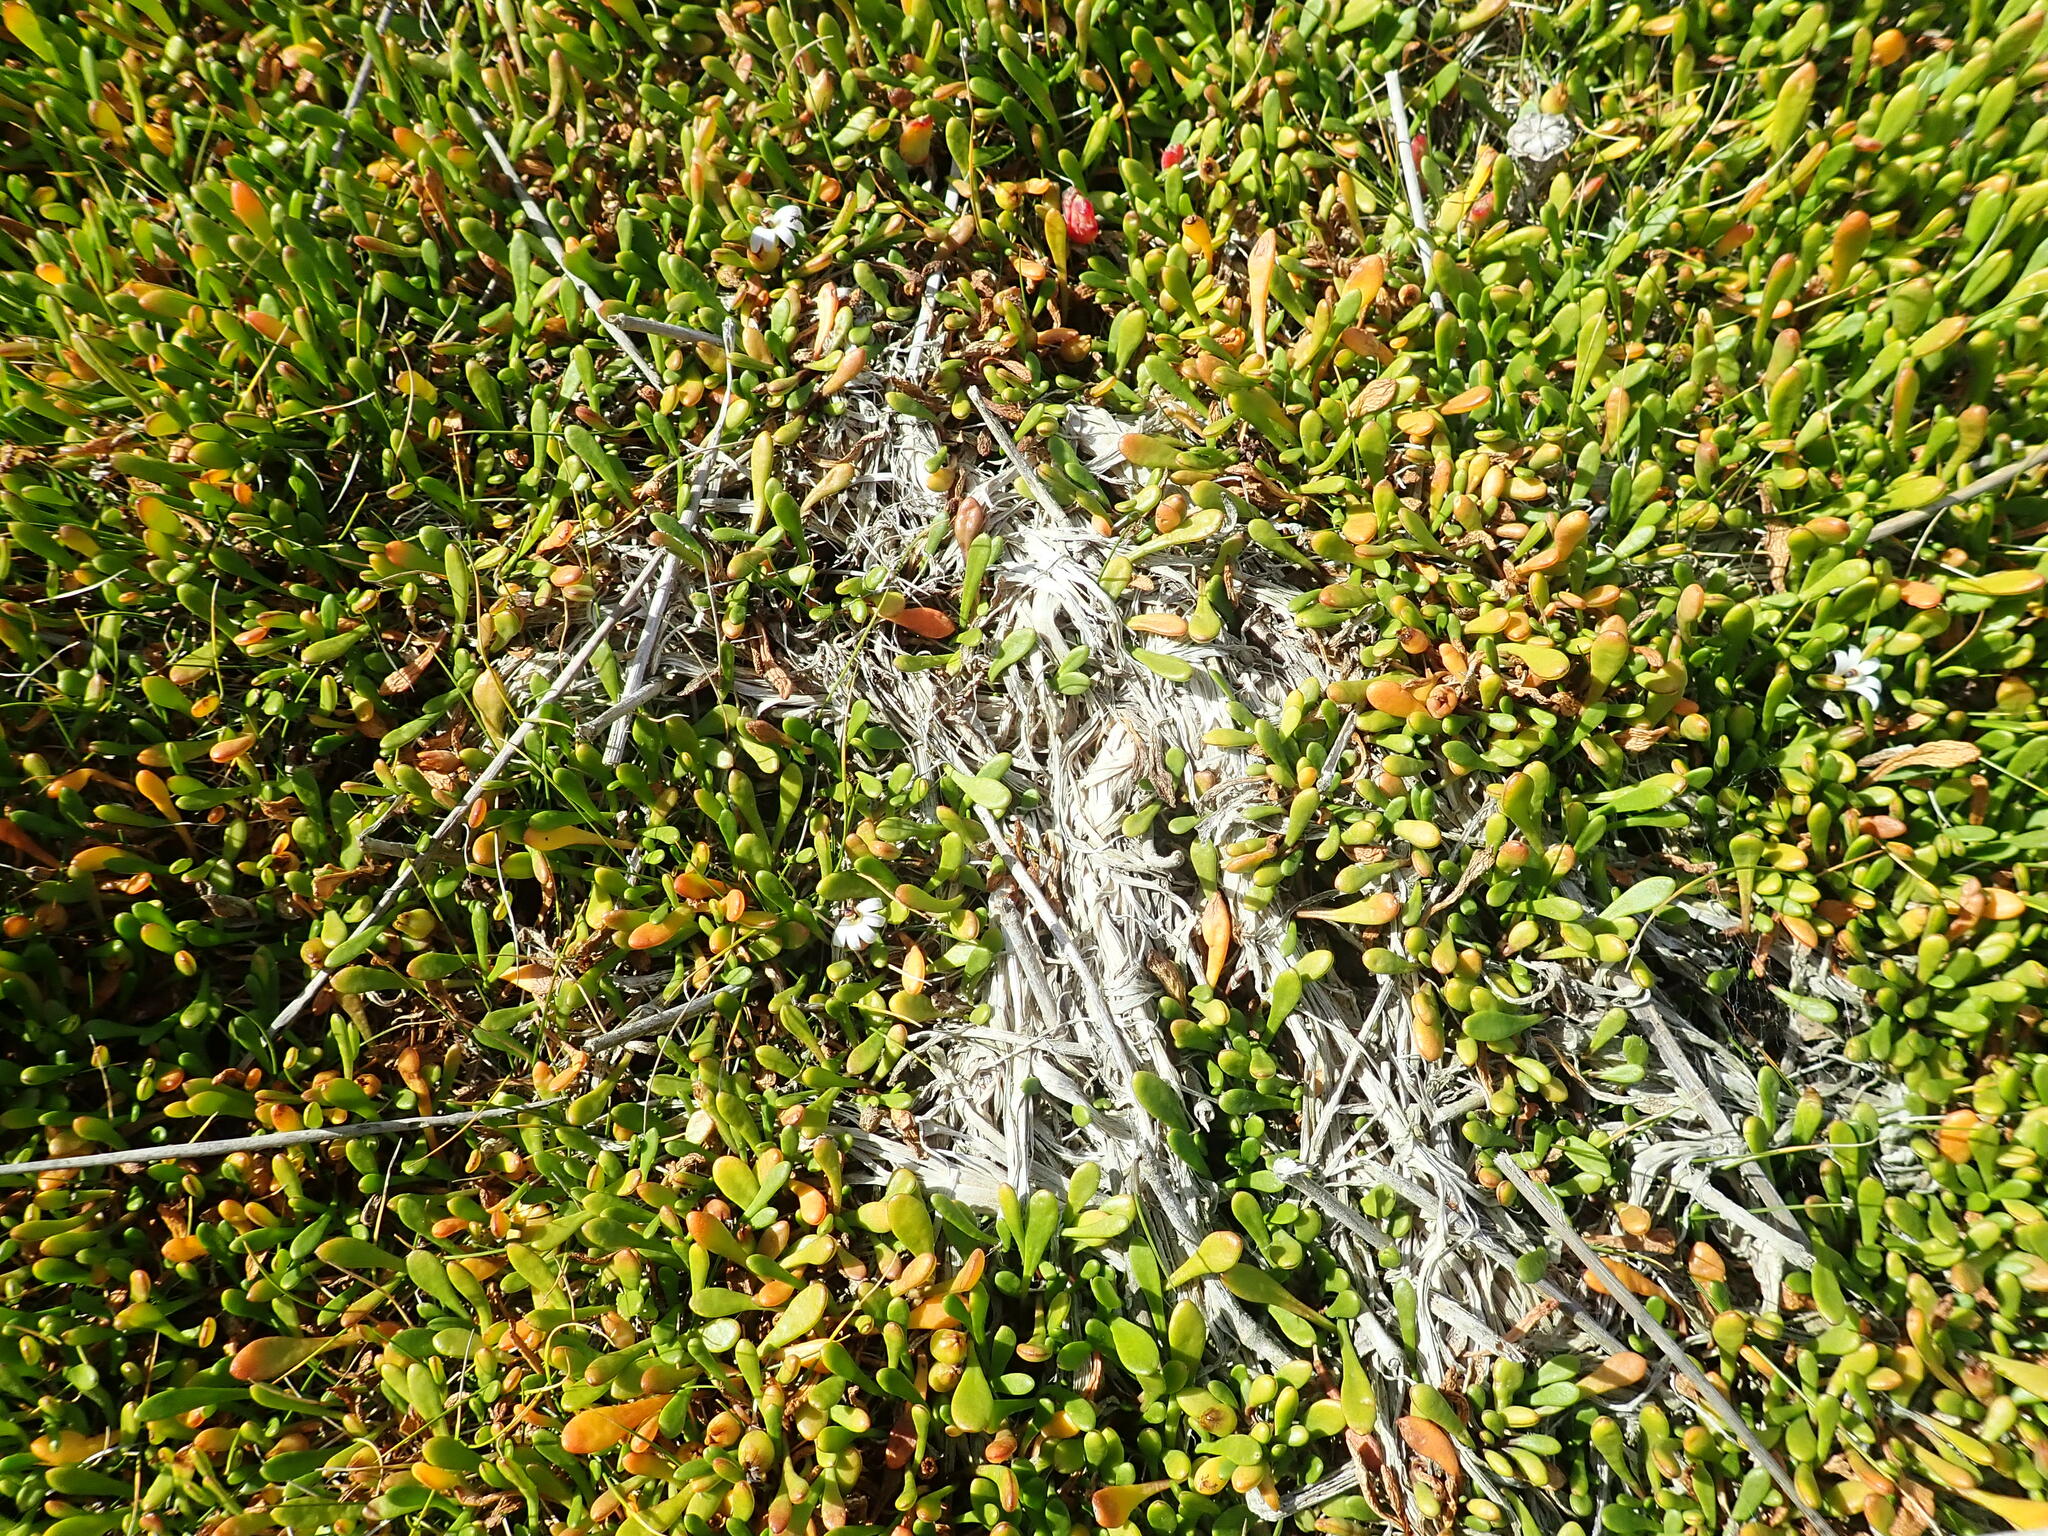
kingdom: Plantae
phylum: Tracheophyta
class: Magnoliopsida
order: Asterales
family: Goodeniaceae
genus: Goodenia
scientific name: Goodenia radicans
